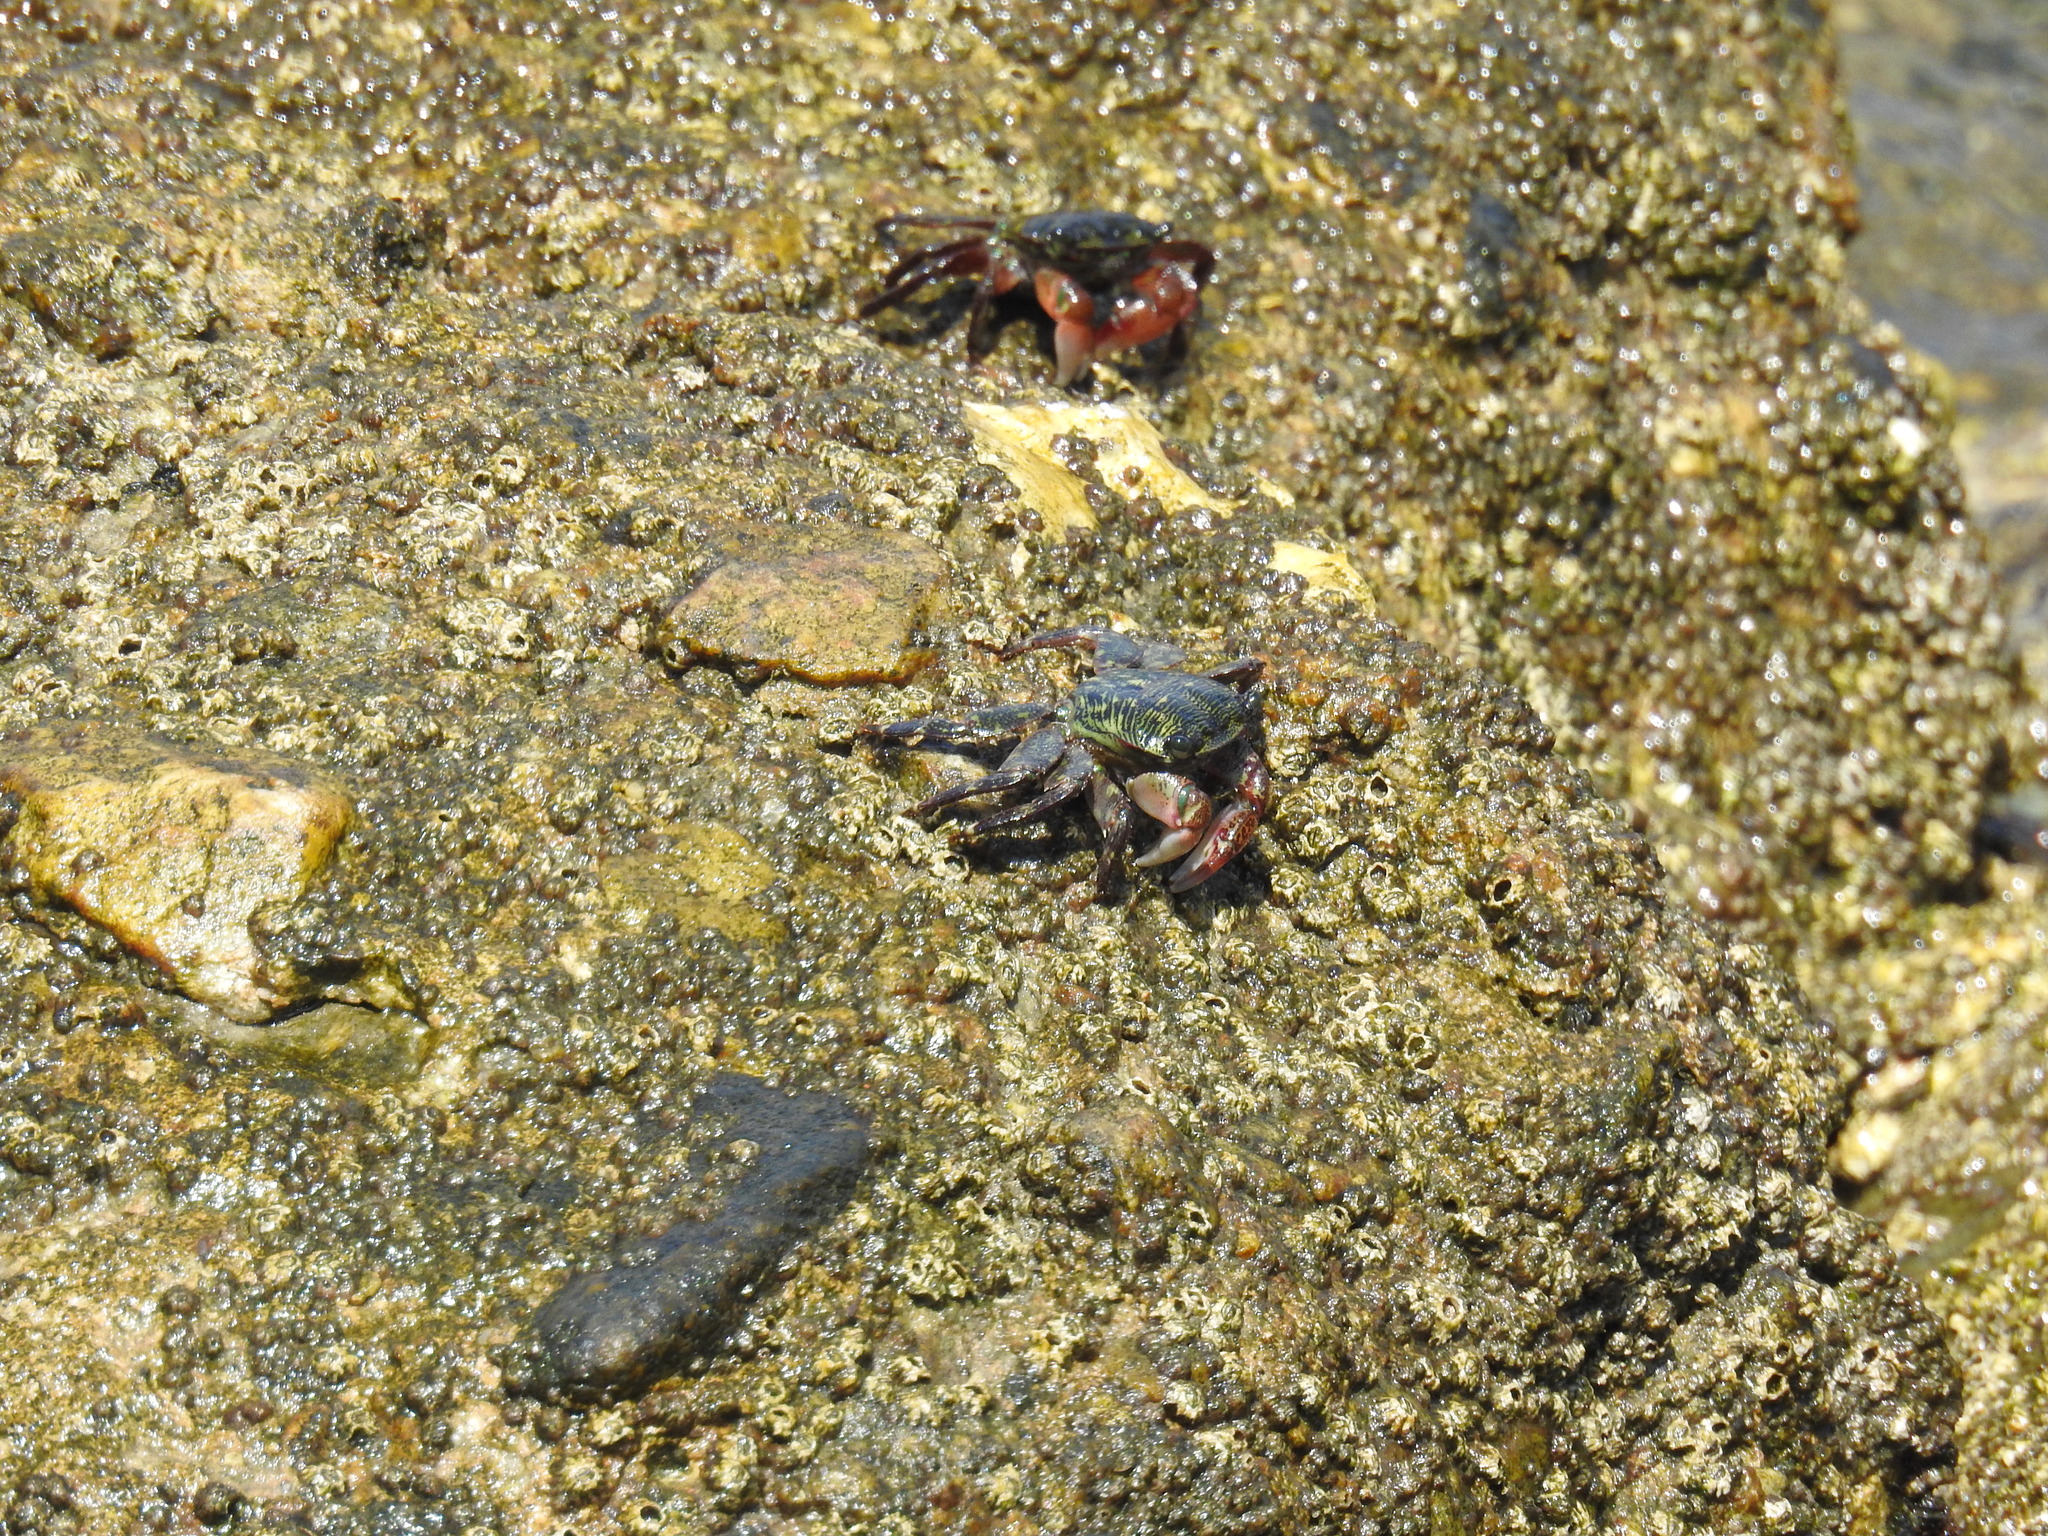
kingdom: Animalia
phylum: Arthropoda
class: Malacostraca
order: Decapoda
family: Grapsidae
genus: Pachygrapsus
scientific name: Pachygrapsus crassipes
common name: Striped shore crab
